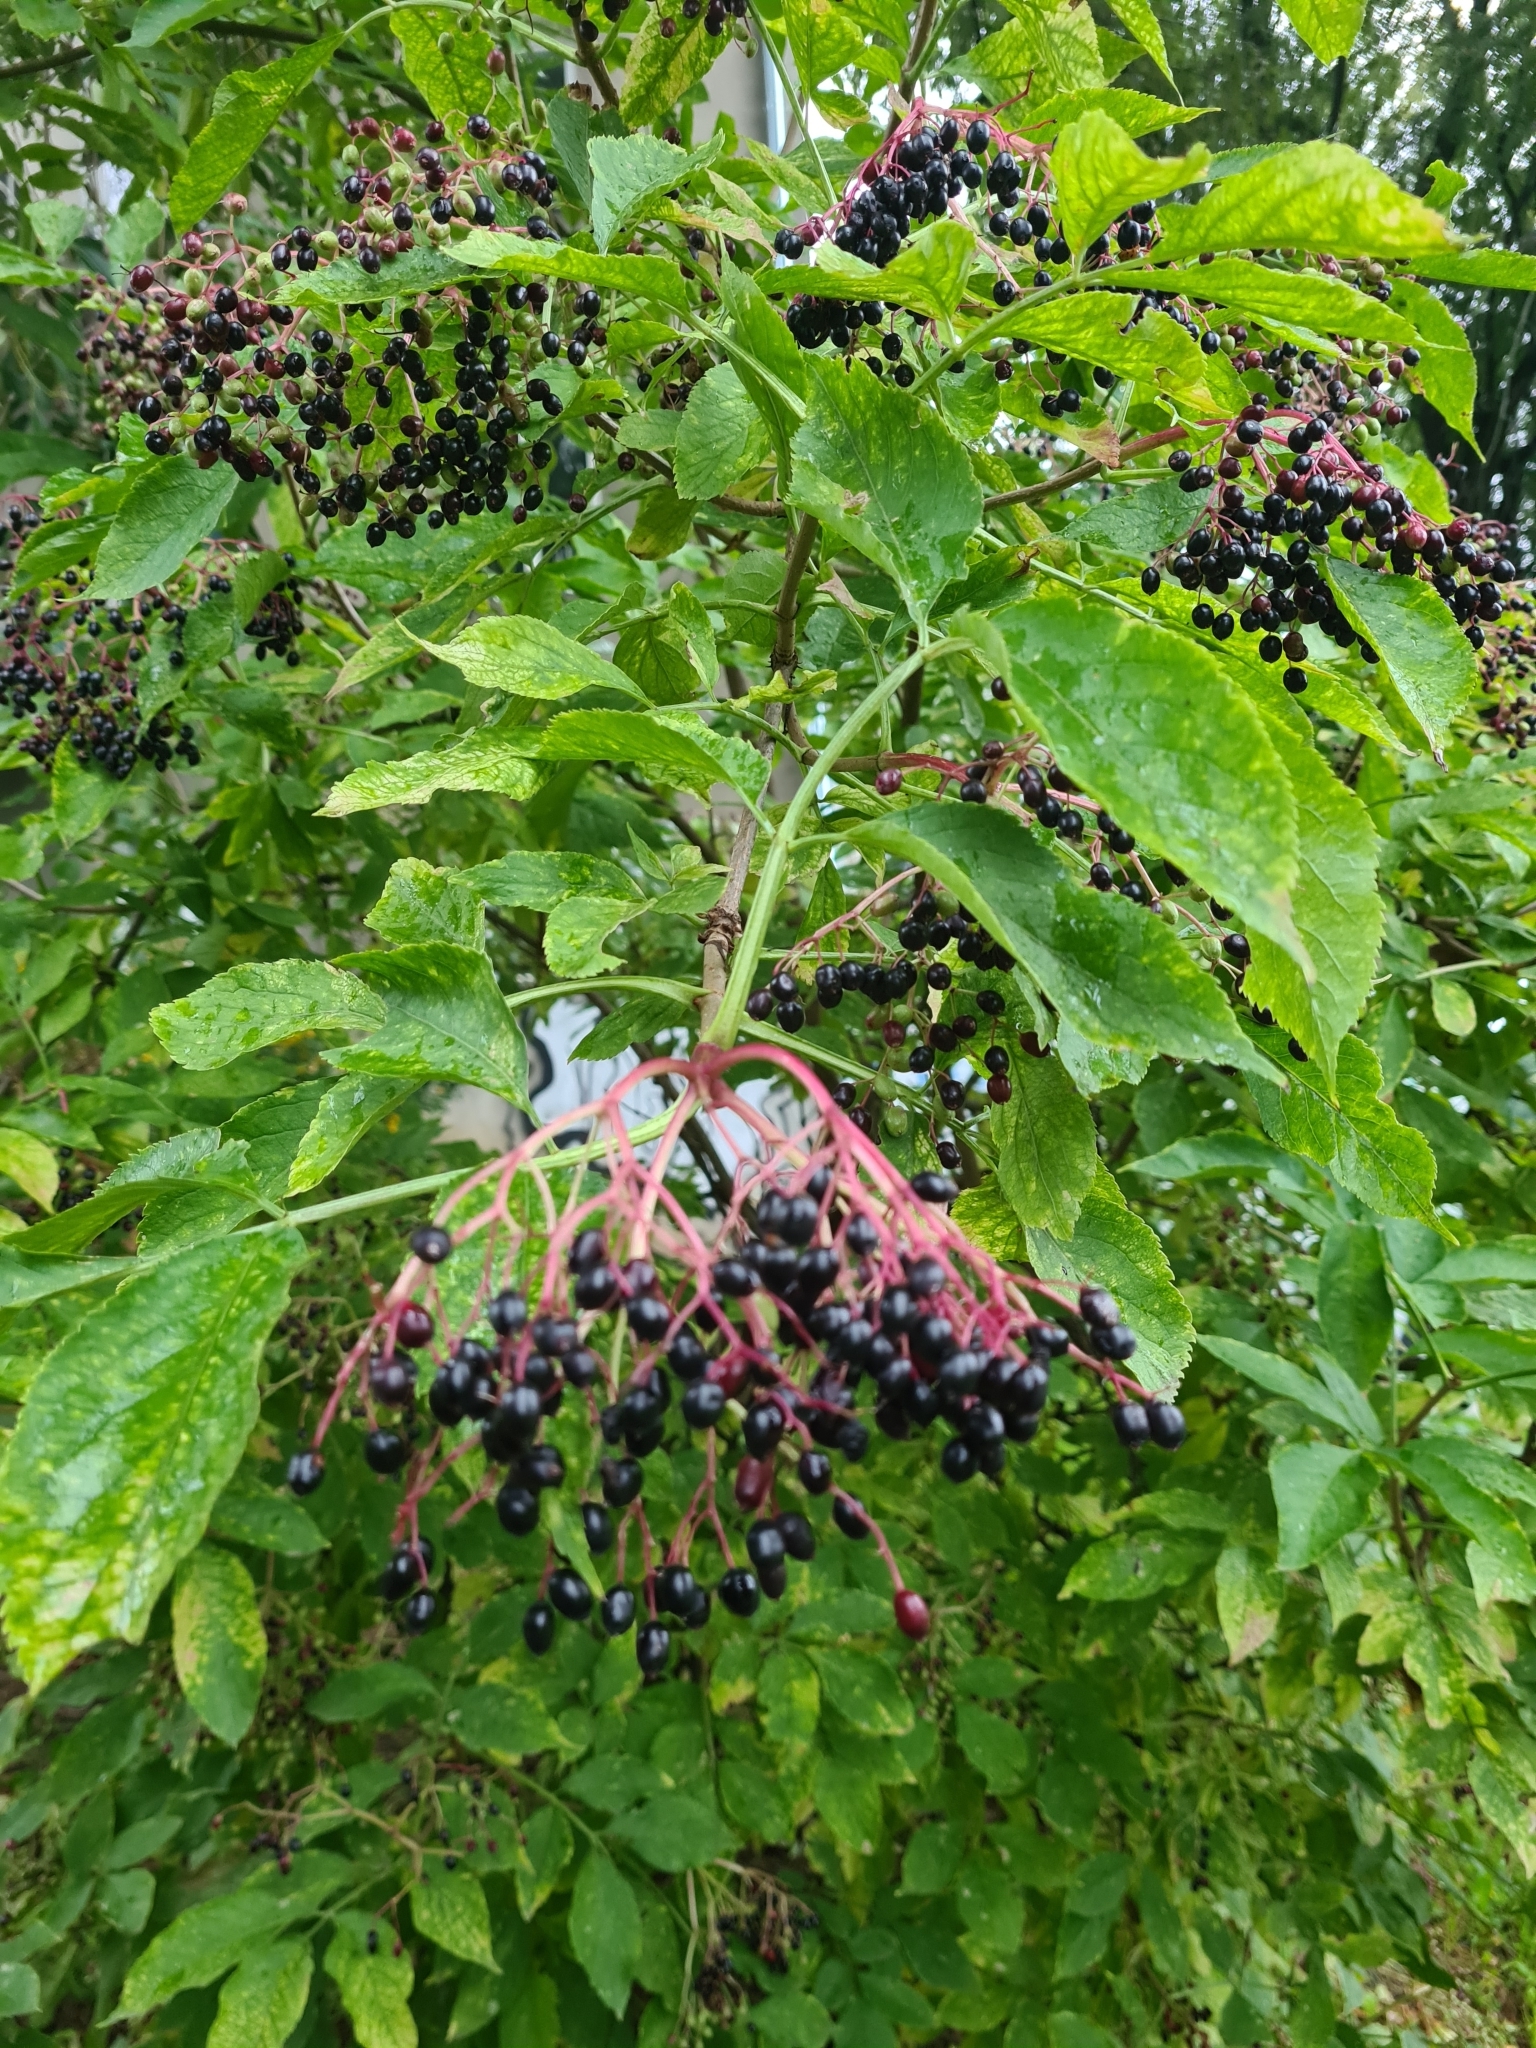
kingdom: Plantae
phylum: Tracheophyta
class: Magnoliopsida
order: Dipsacales
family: Viburnaceae
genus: Sambucus
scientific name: Sambucus nigra
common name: Elder
